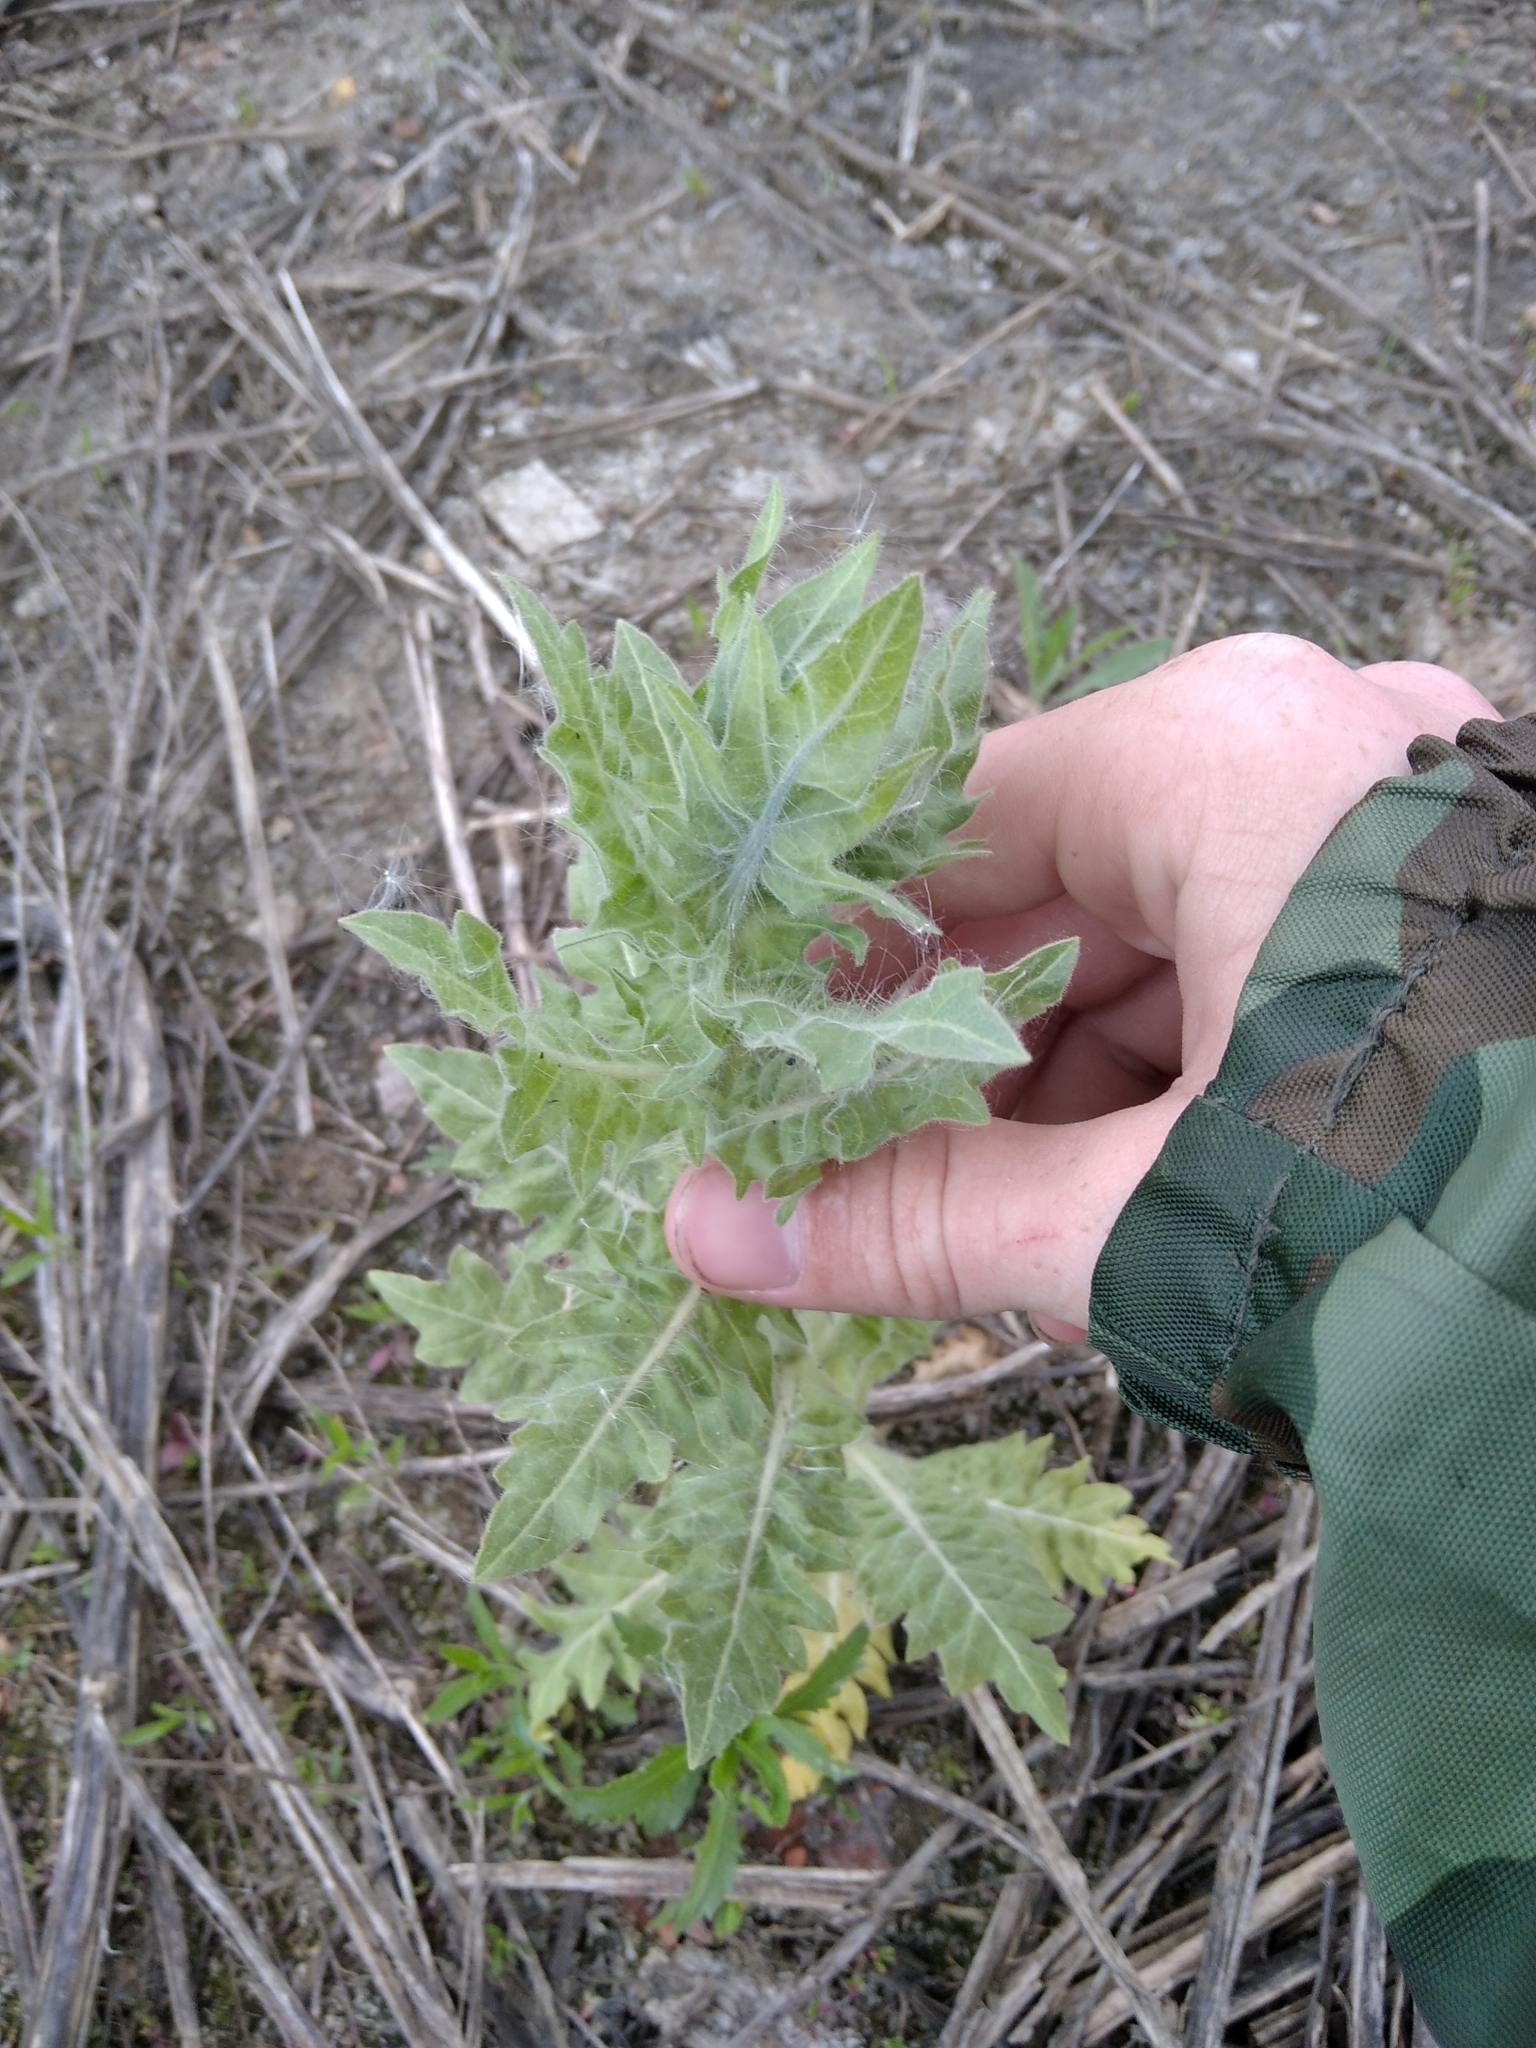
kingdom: Plantae
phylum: Tracheophyta
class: Magnoliopsida
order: Solanales
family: Solanaceae
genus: Hyoscyamus
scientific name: Hyoscyamus niger
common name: Henbane
